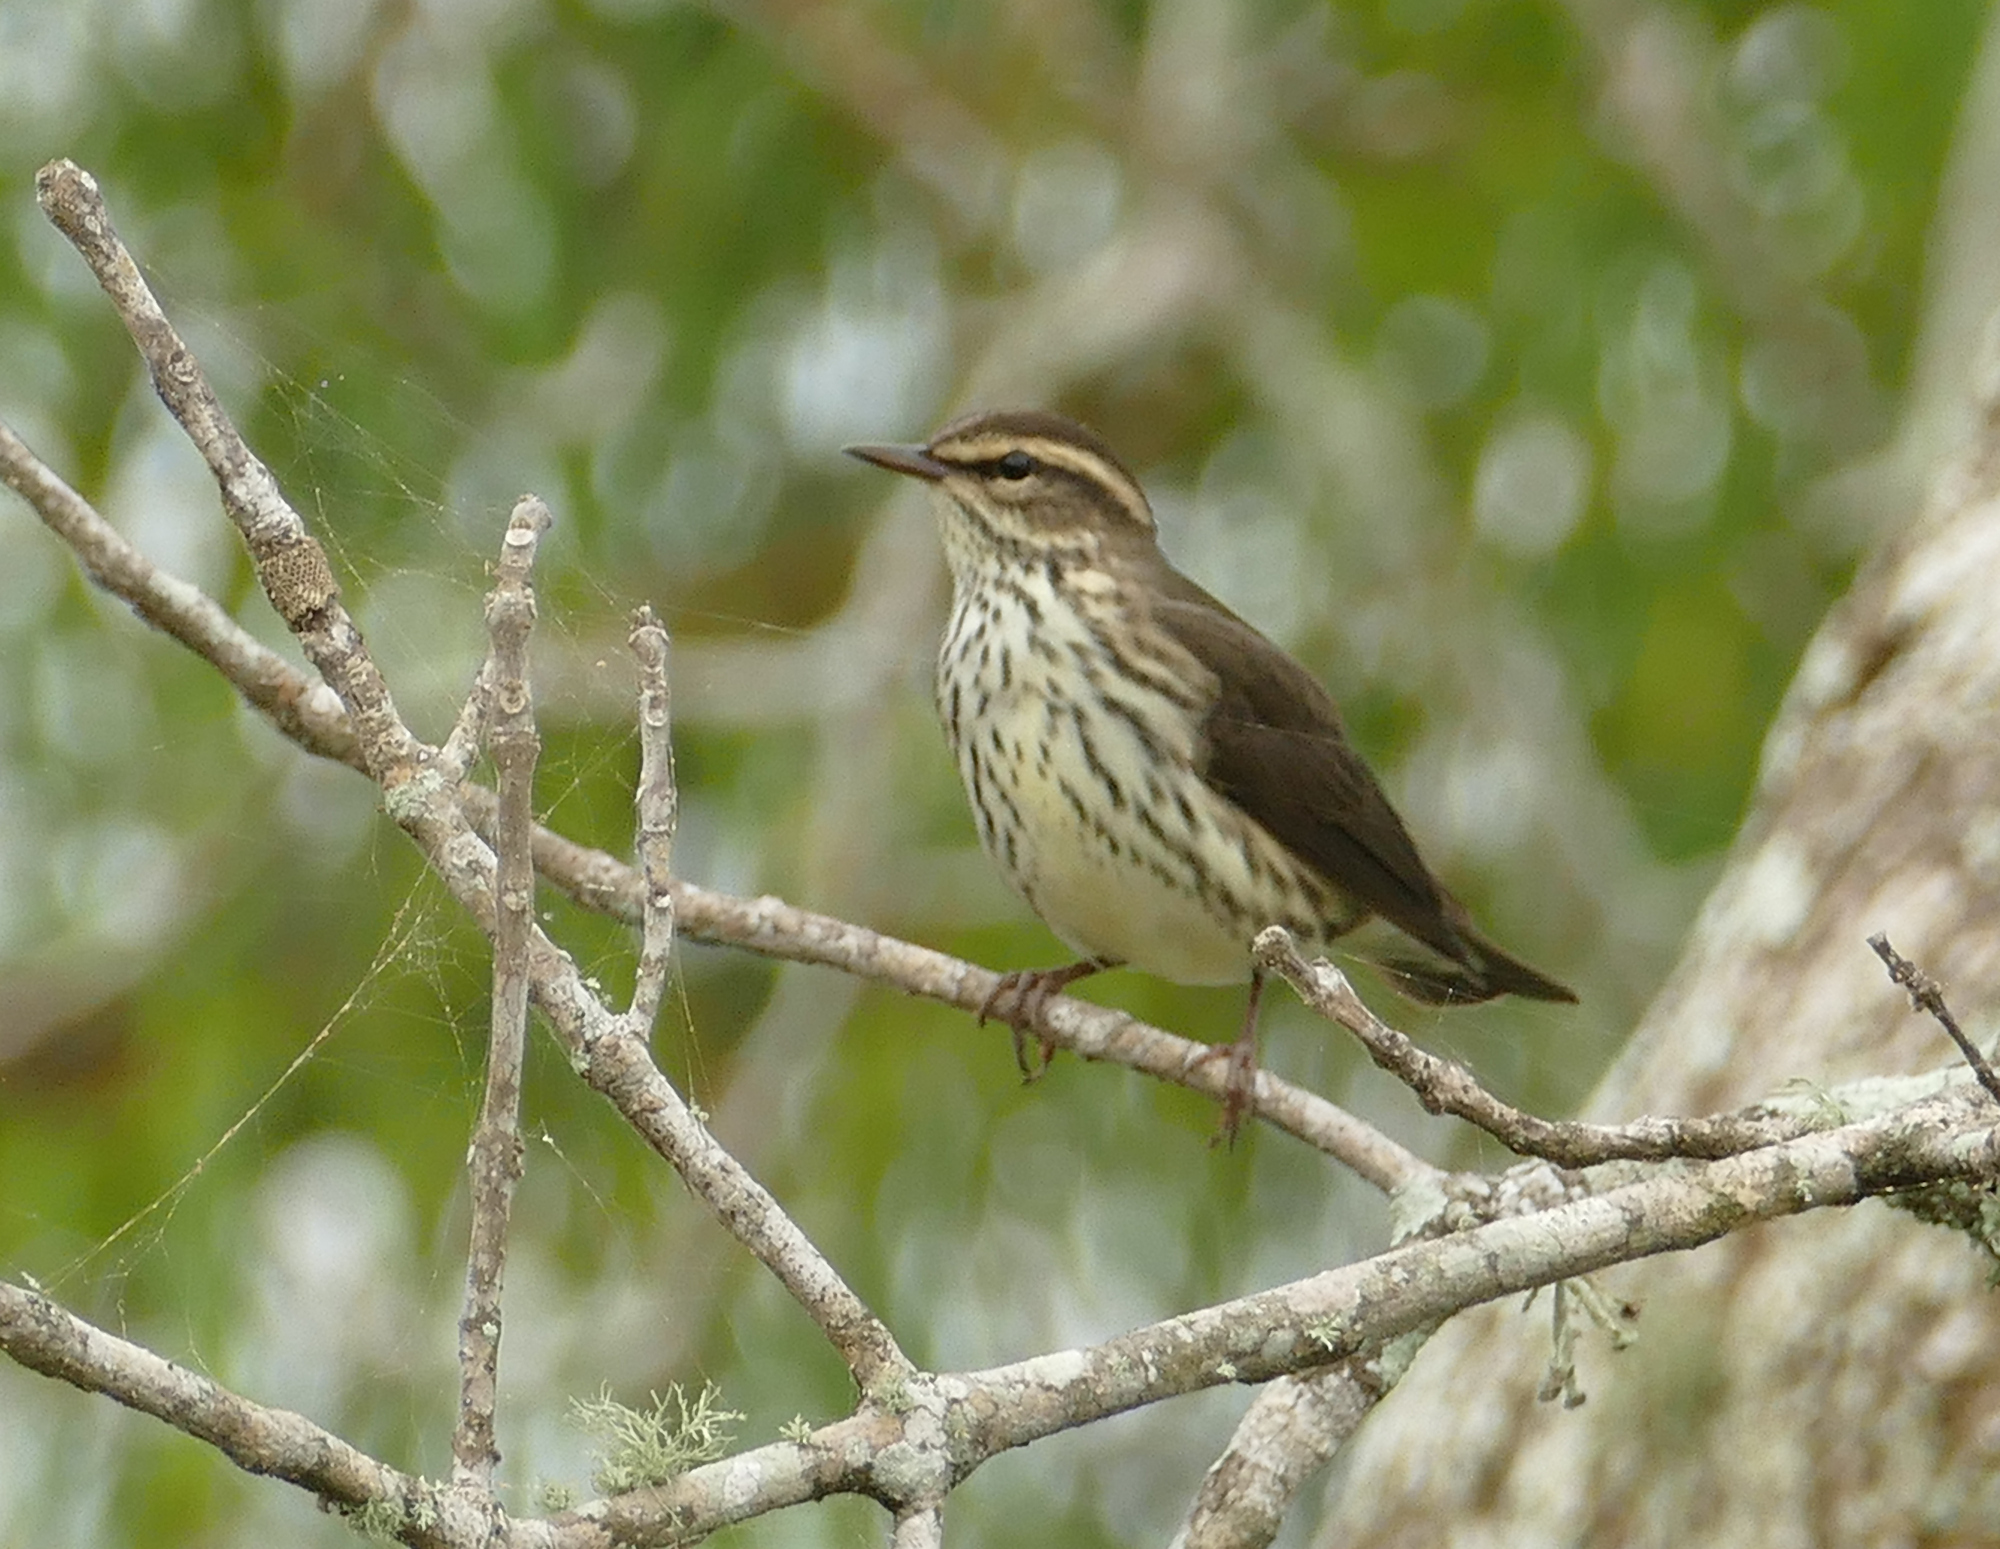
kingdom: Animalia
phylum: Chordata
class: Aves
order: Passeriformes
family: Parulidae
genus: Parkesia
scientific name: Parkesia noveboracensis
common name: Northern waterthrush
